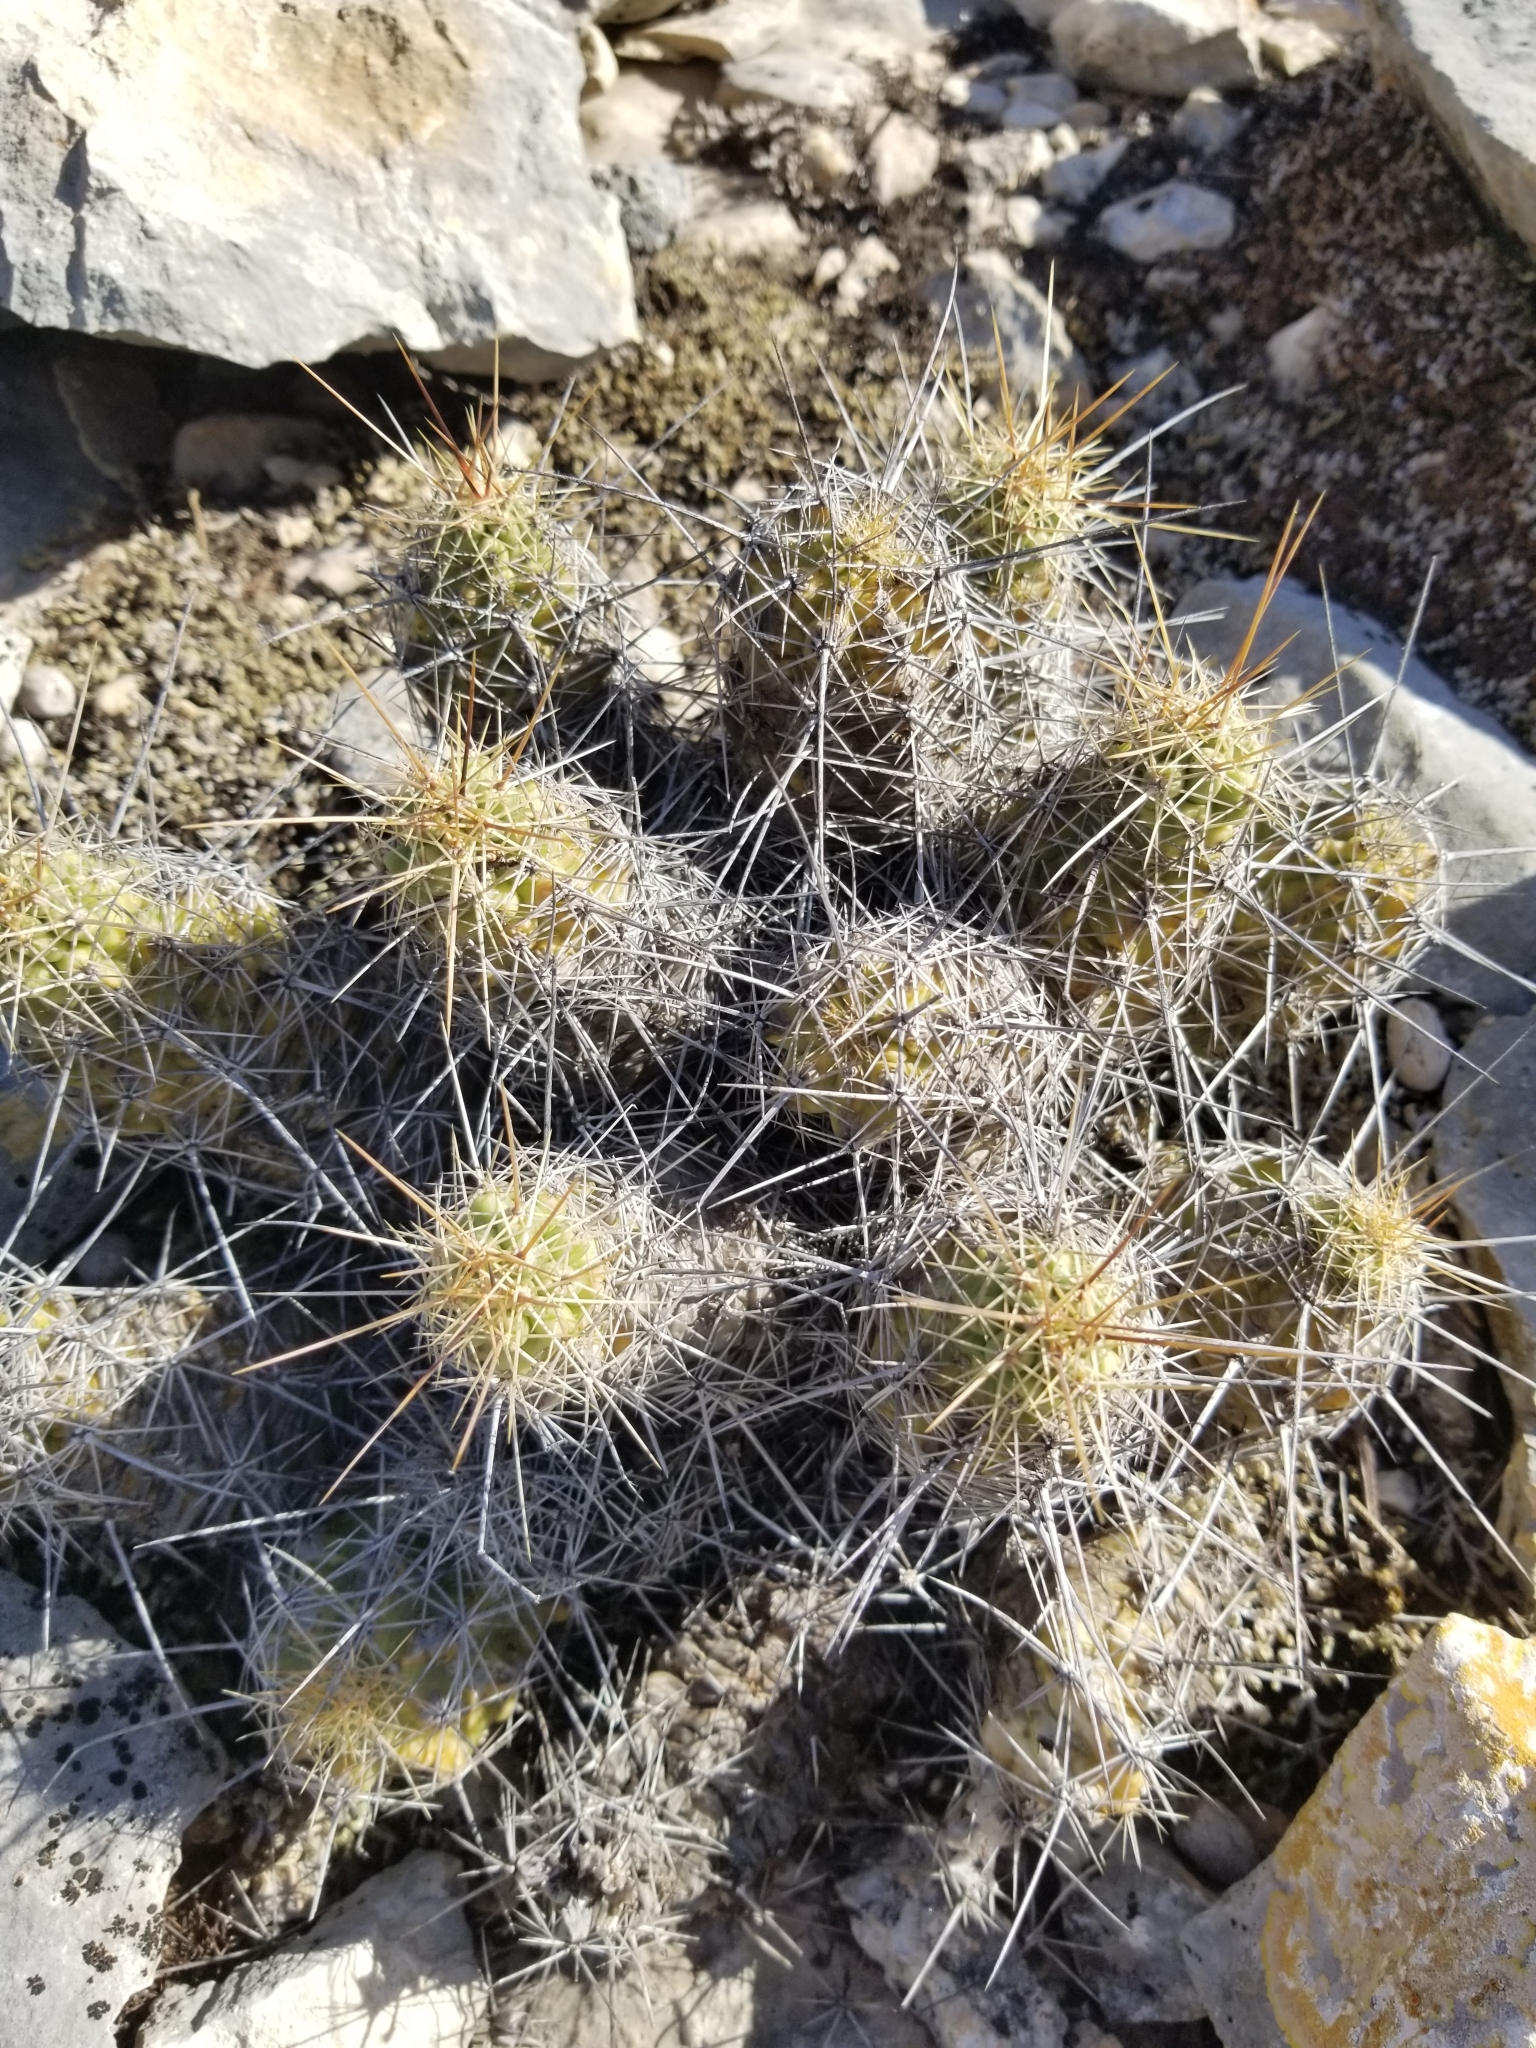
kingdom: Plantae
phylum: Tracheophyta
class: Magnoliopsida
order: Caryophyllales
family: Cactaceae
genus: Echinocereus
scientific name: Echinocereus enneacanthus
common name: Pitaya
